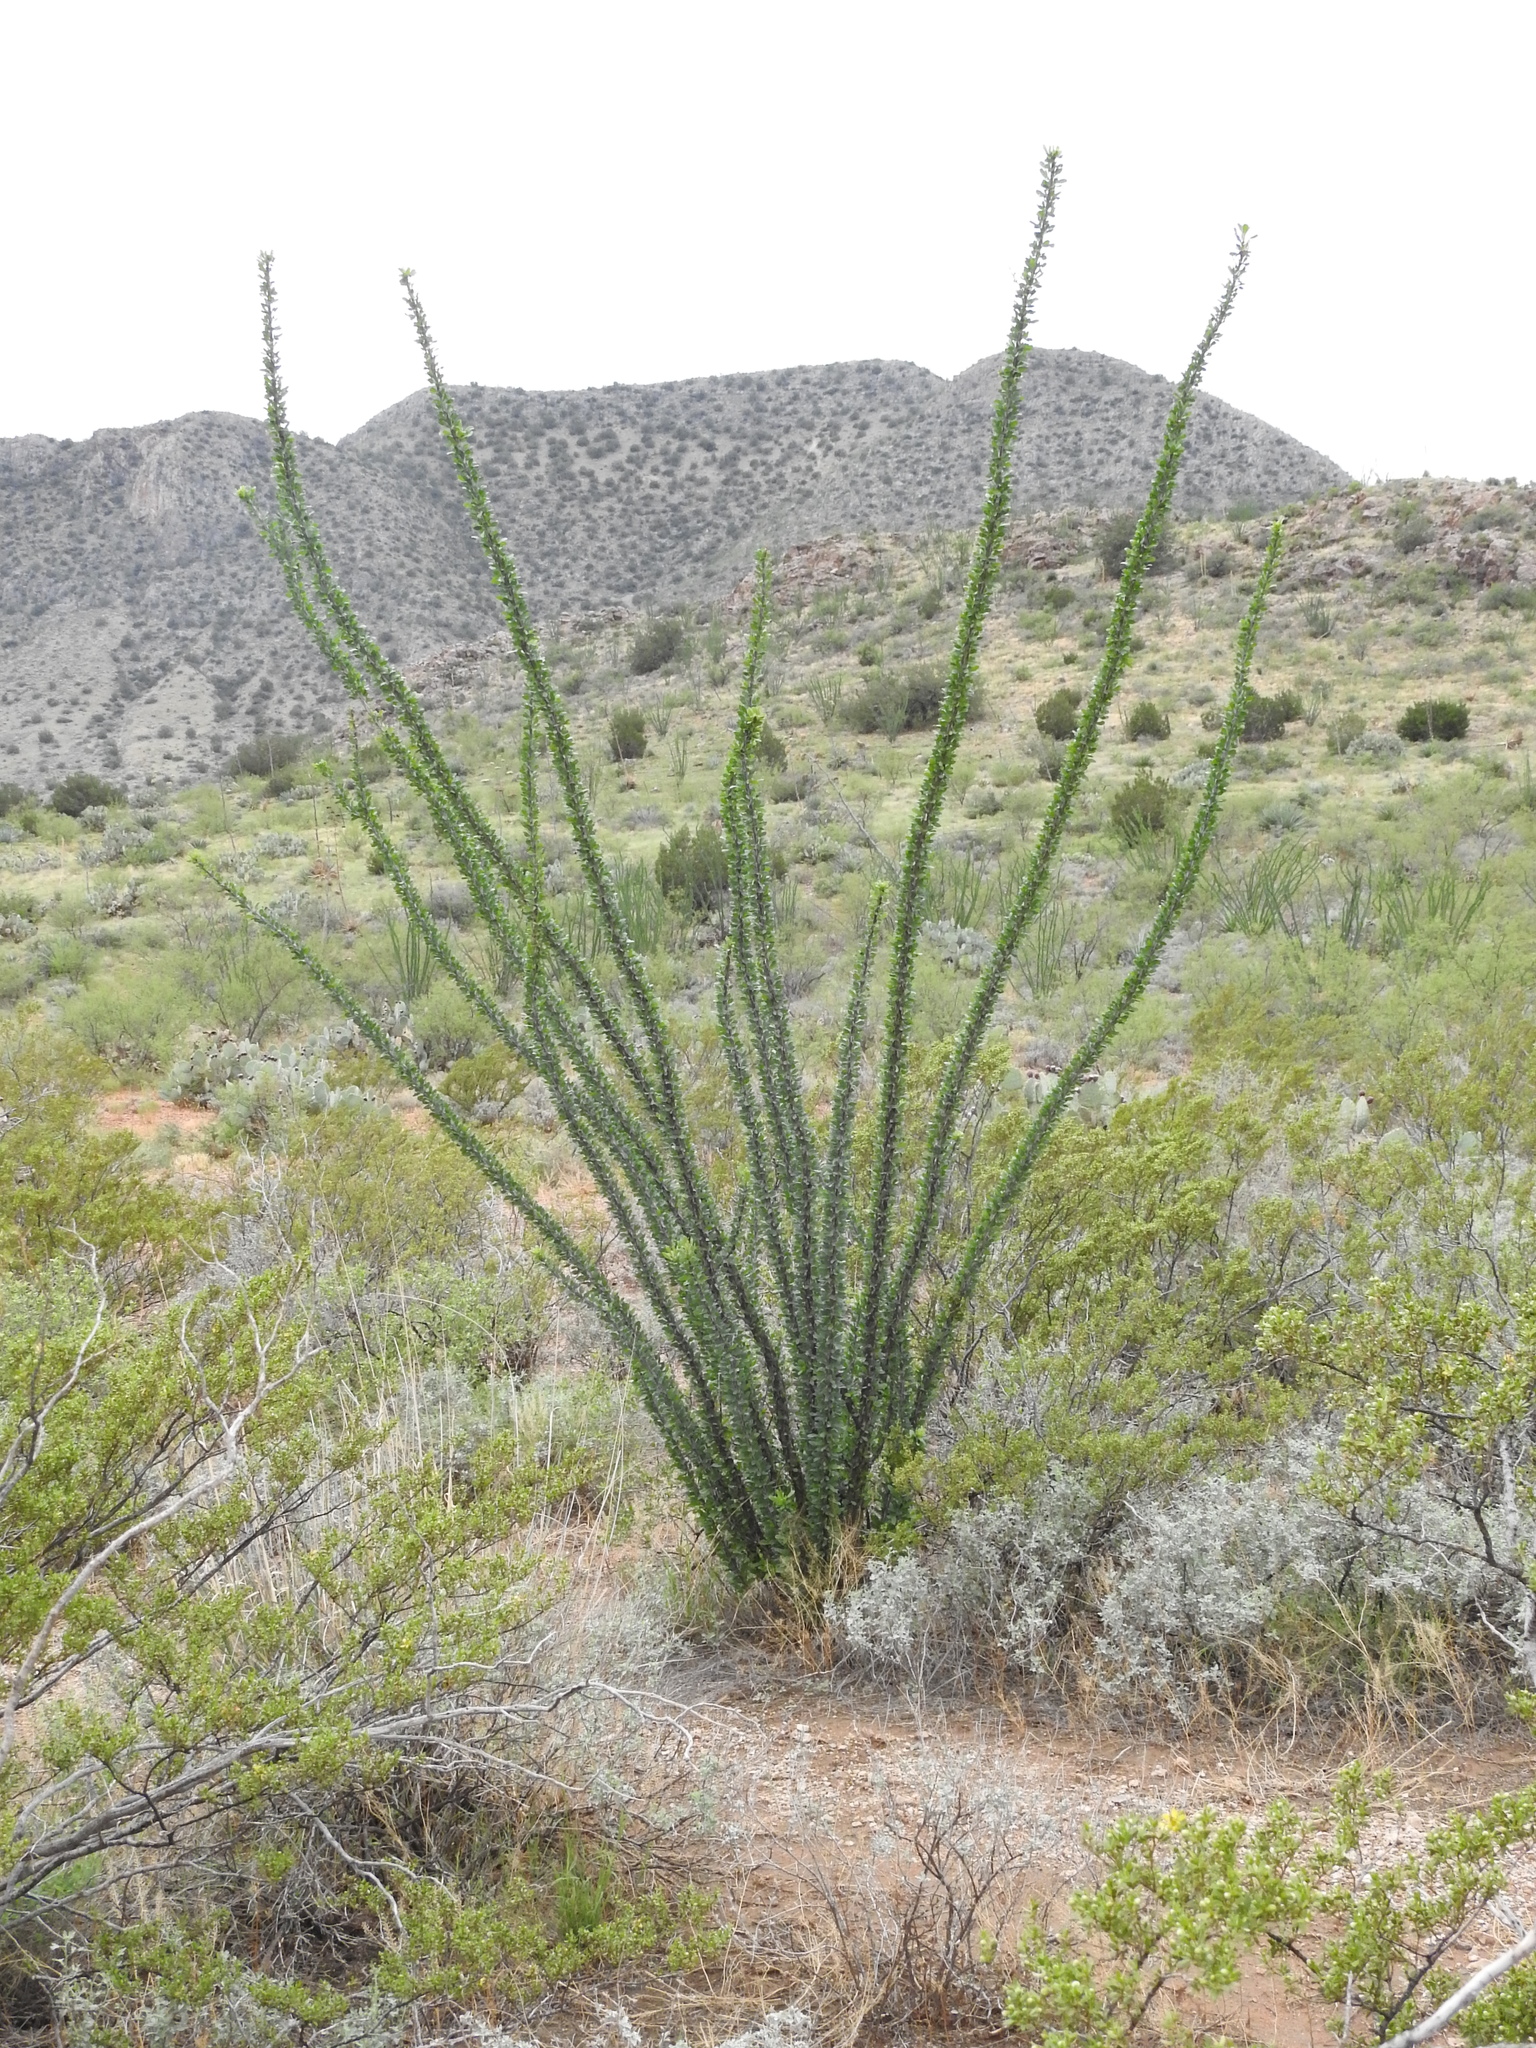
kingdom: Plantae
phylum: Tracheophyta
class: Magnoliopsida
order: Ericales
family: Fouquieriaceae
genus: Fouquieria
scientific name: Fouquieria splendens
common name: Vine-cactus
